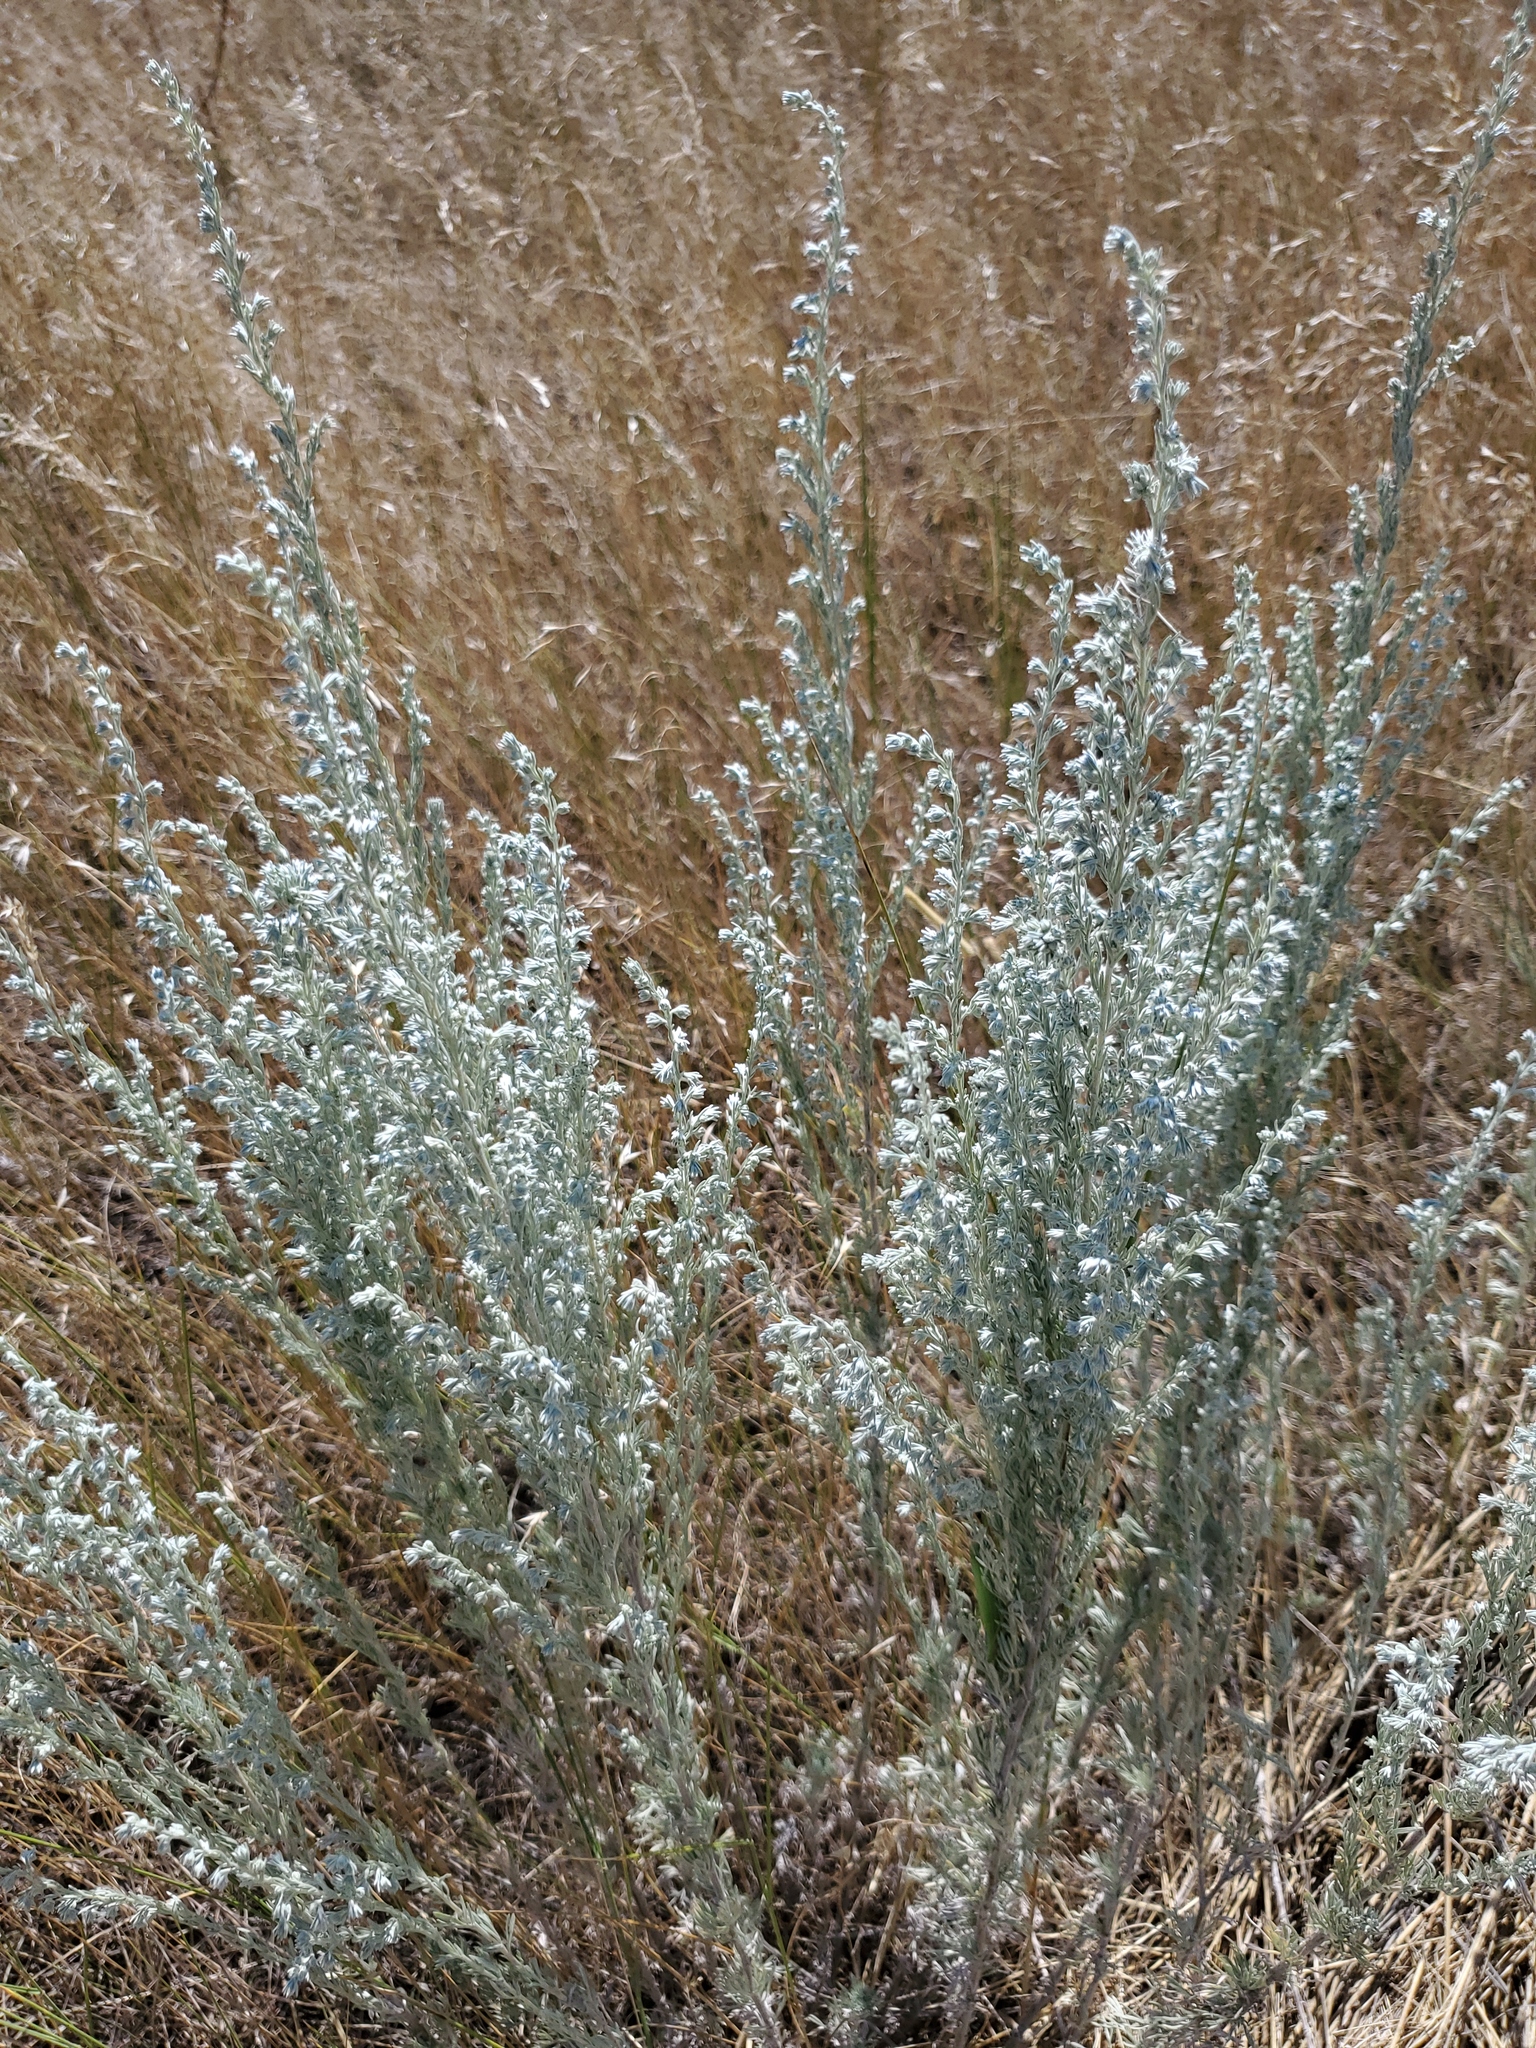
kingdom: Plantae
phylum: Tracheophyta
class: Magnoliopsida
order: Asterales
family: Asteraceae
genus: Artemisia
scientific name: Artemisia frigida
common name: Prairie sagewort
